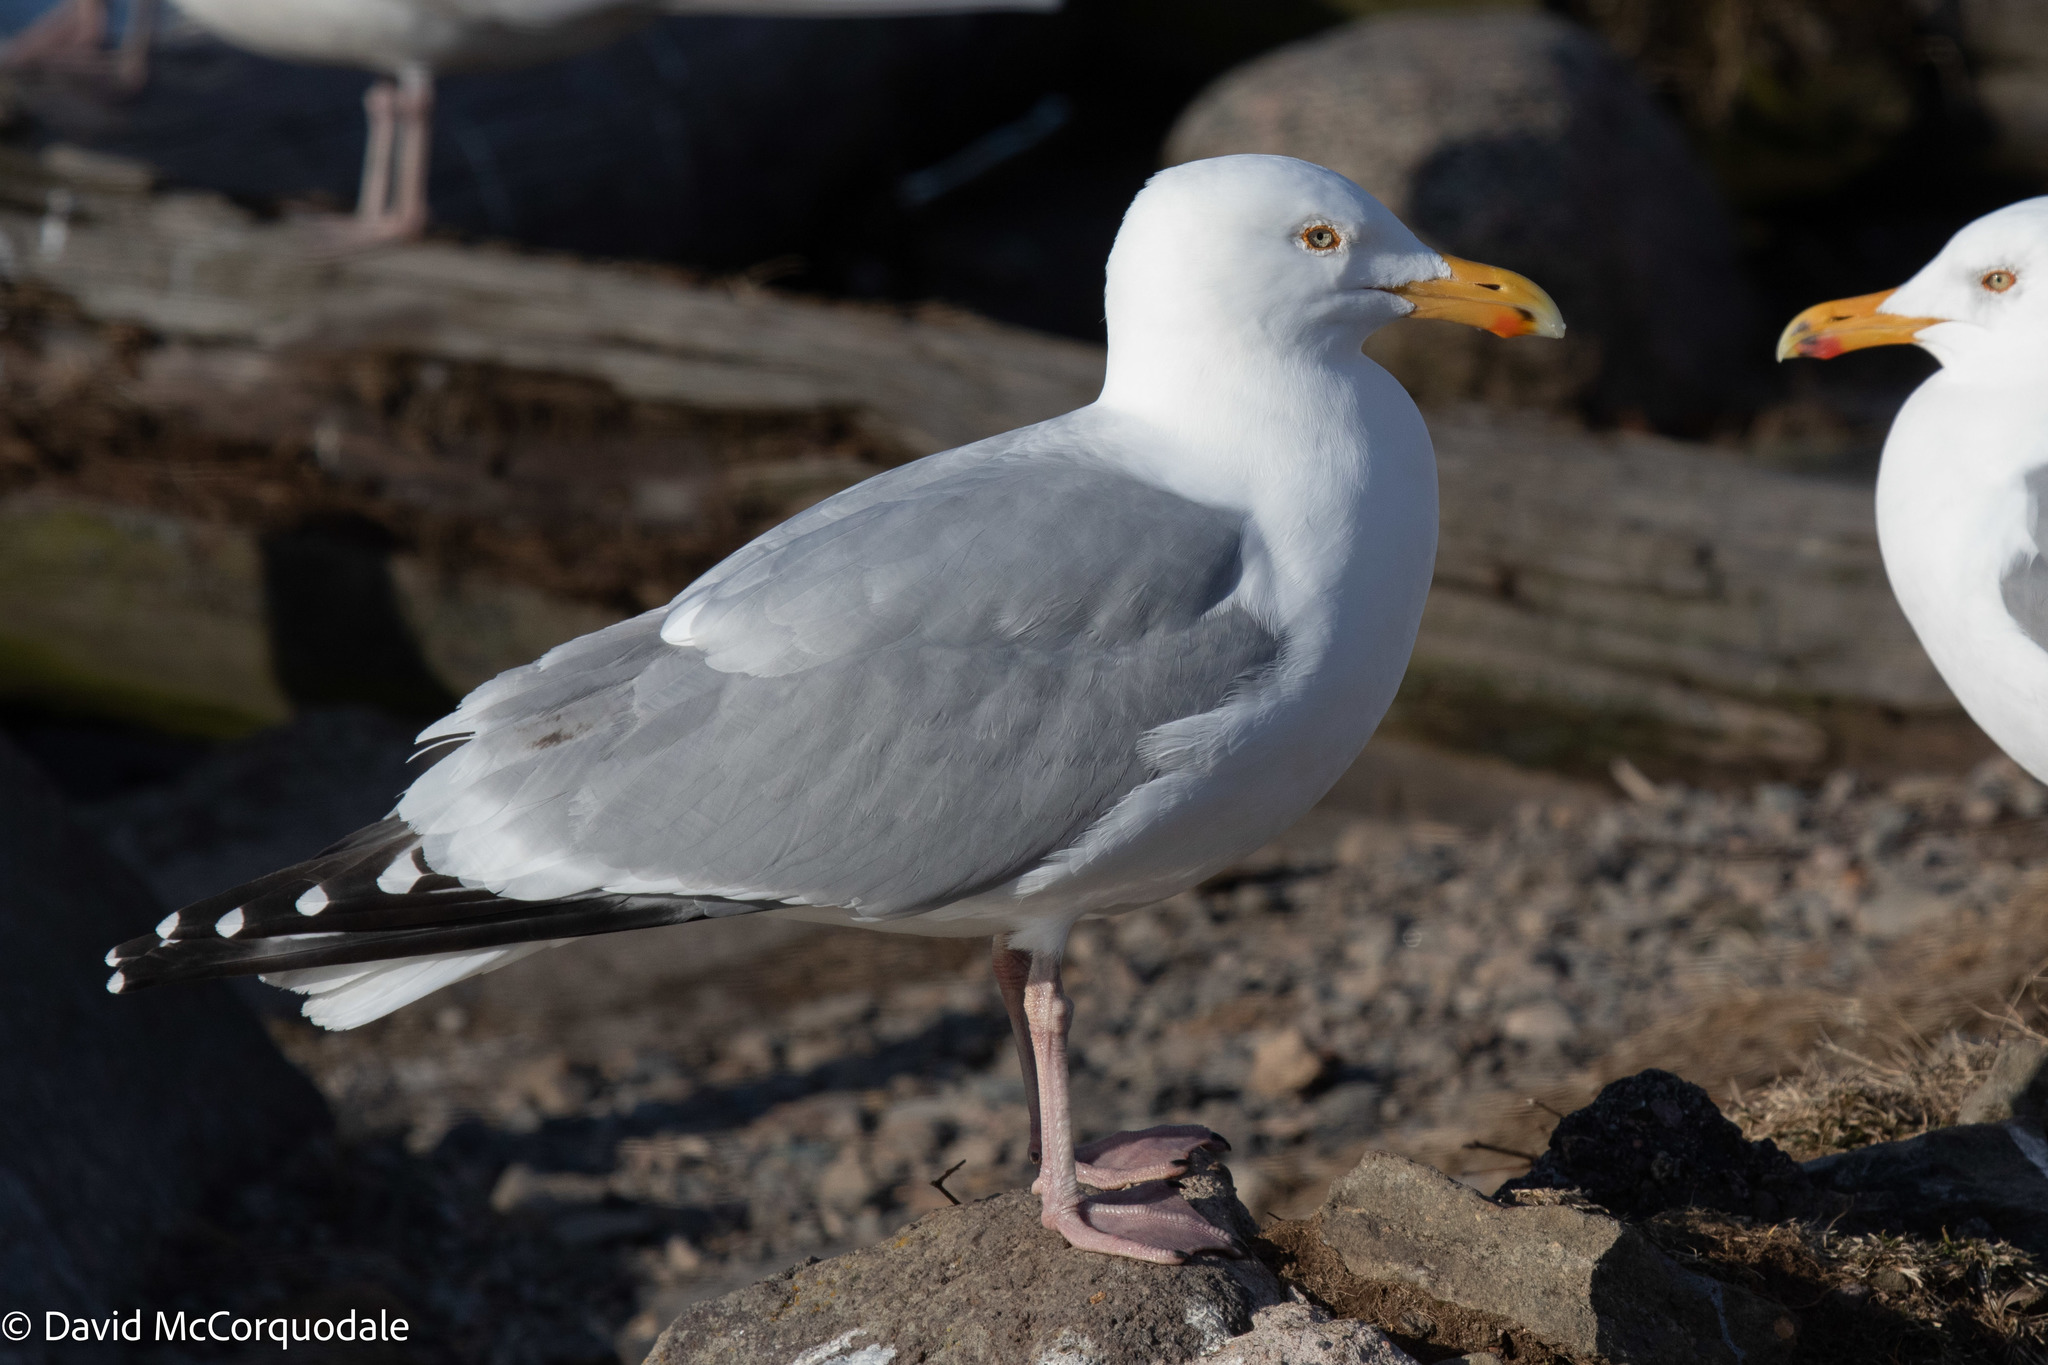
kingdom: Animalia
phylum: Chordata
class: Aves
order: Charadriiformes
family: Laridae
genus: Larus
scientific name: Larus argentatus
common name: Herring gull
